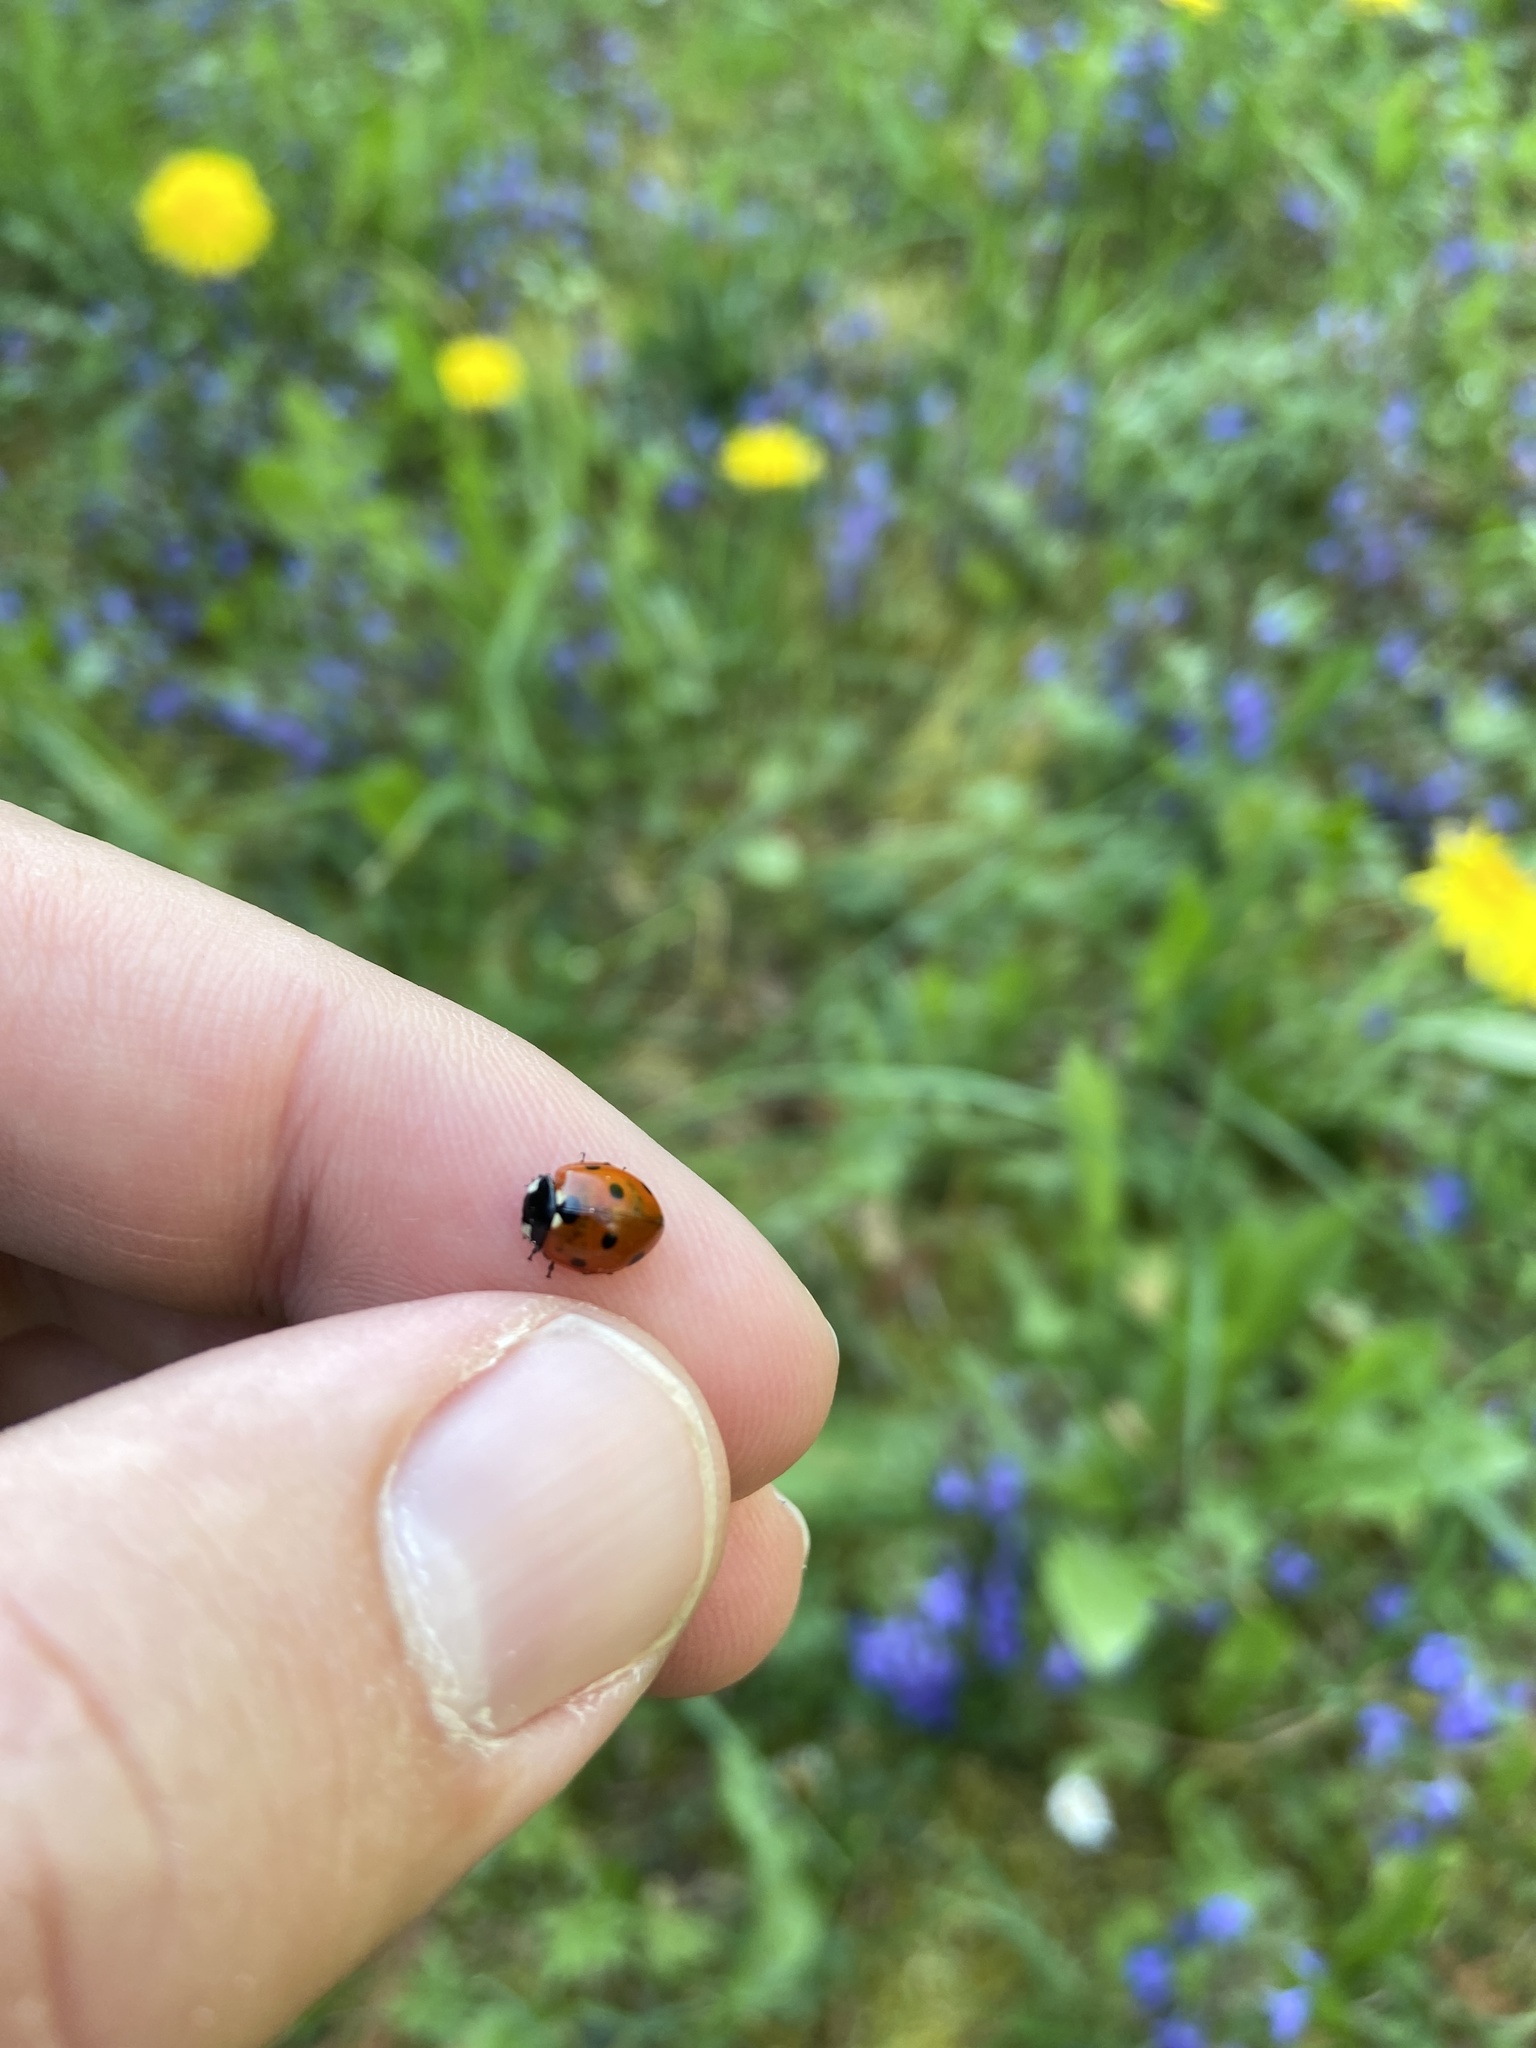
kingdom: Animalia
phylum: Arthropoda
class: Insecta
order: Coleoptera
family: Coccinellidae
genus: Coccinella
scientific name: Coccinella septempunctata
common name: Sevenspotted lady beetle
